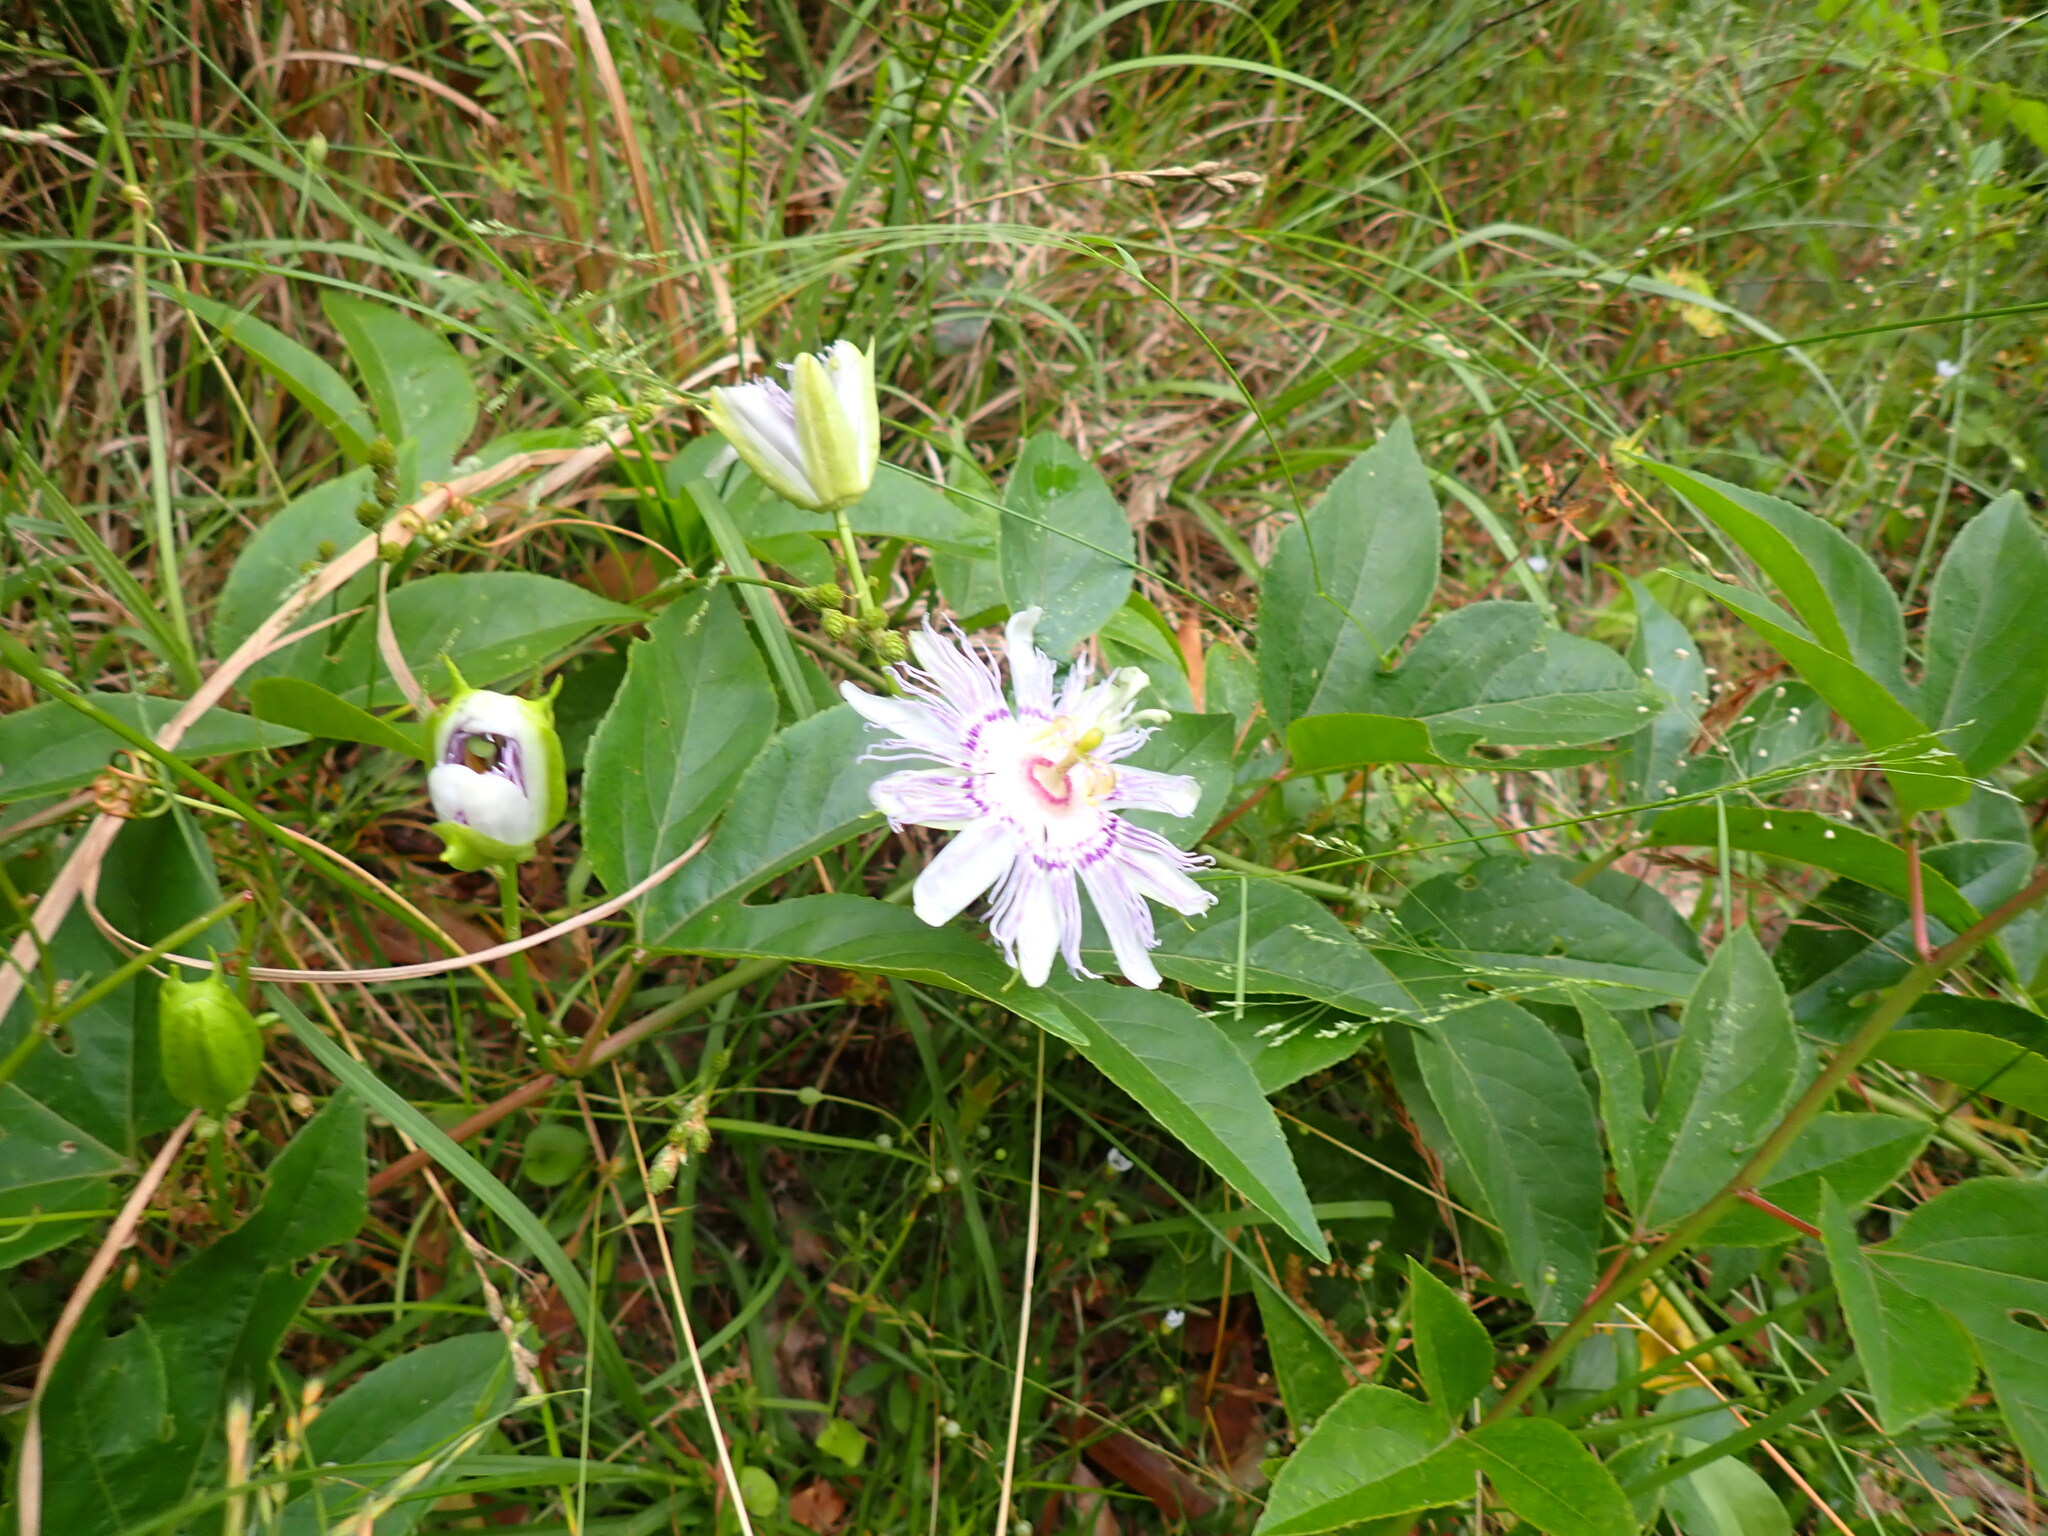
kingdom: Plantae
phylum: Tracheophyta
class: Magnoliopsida
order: Malpighiales
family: Passifloraceae
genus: Passiflora
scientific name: Passiflora incarnata
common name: Apricot-vine
